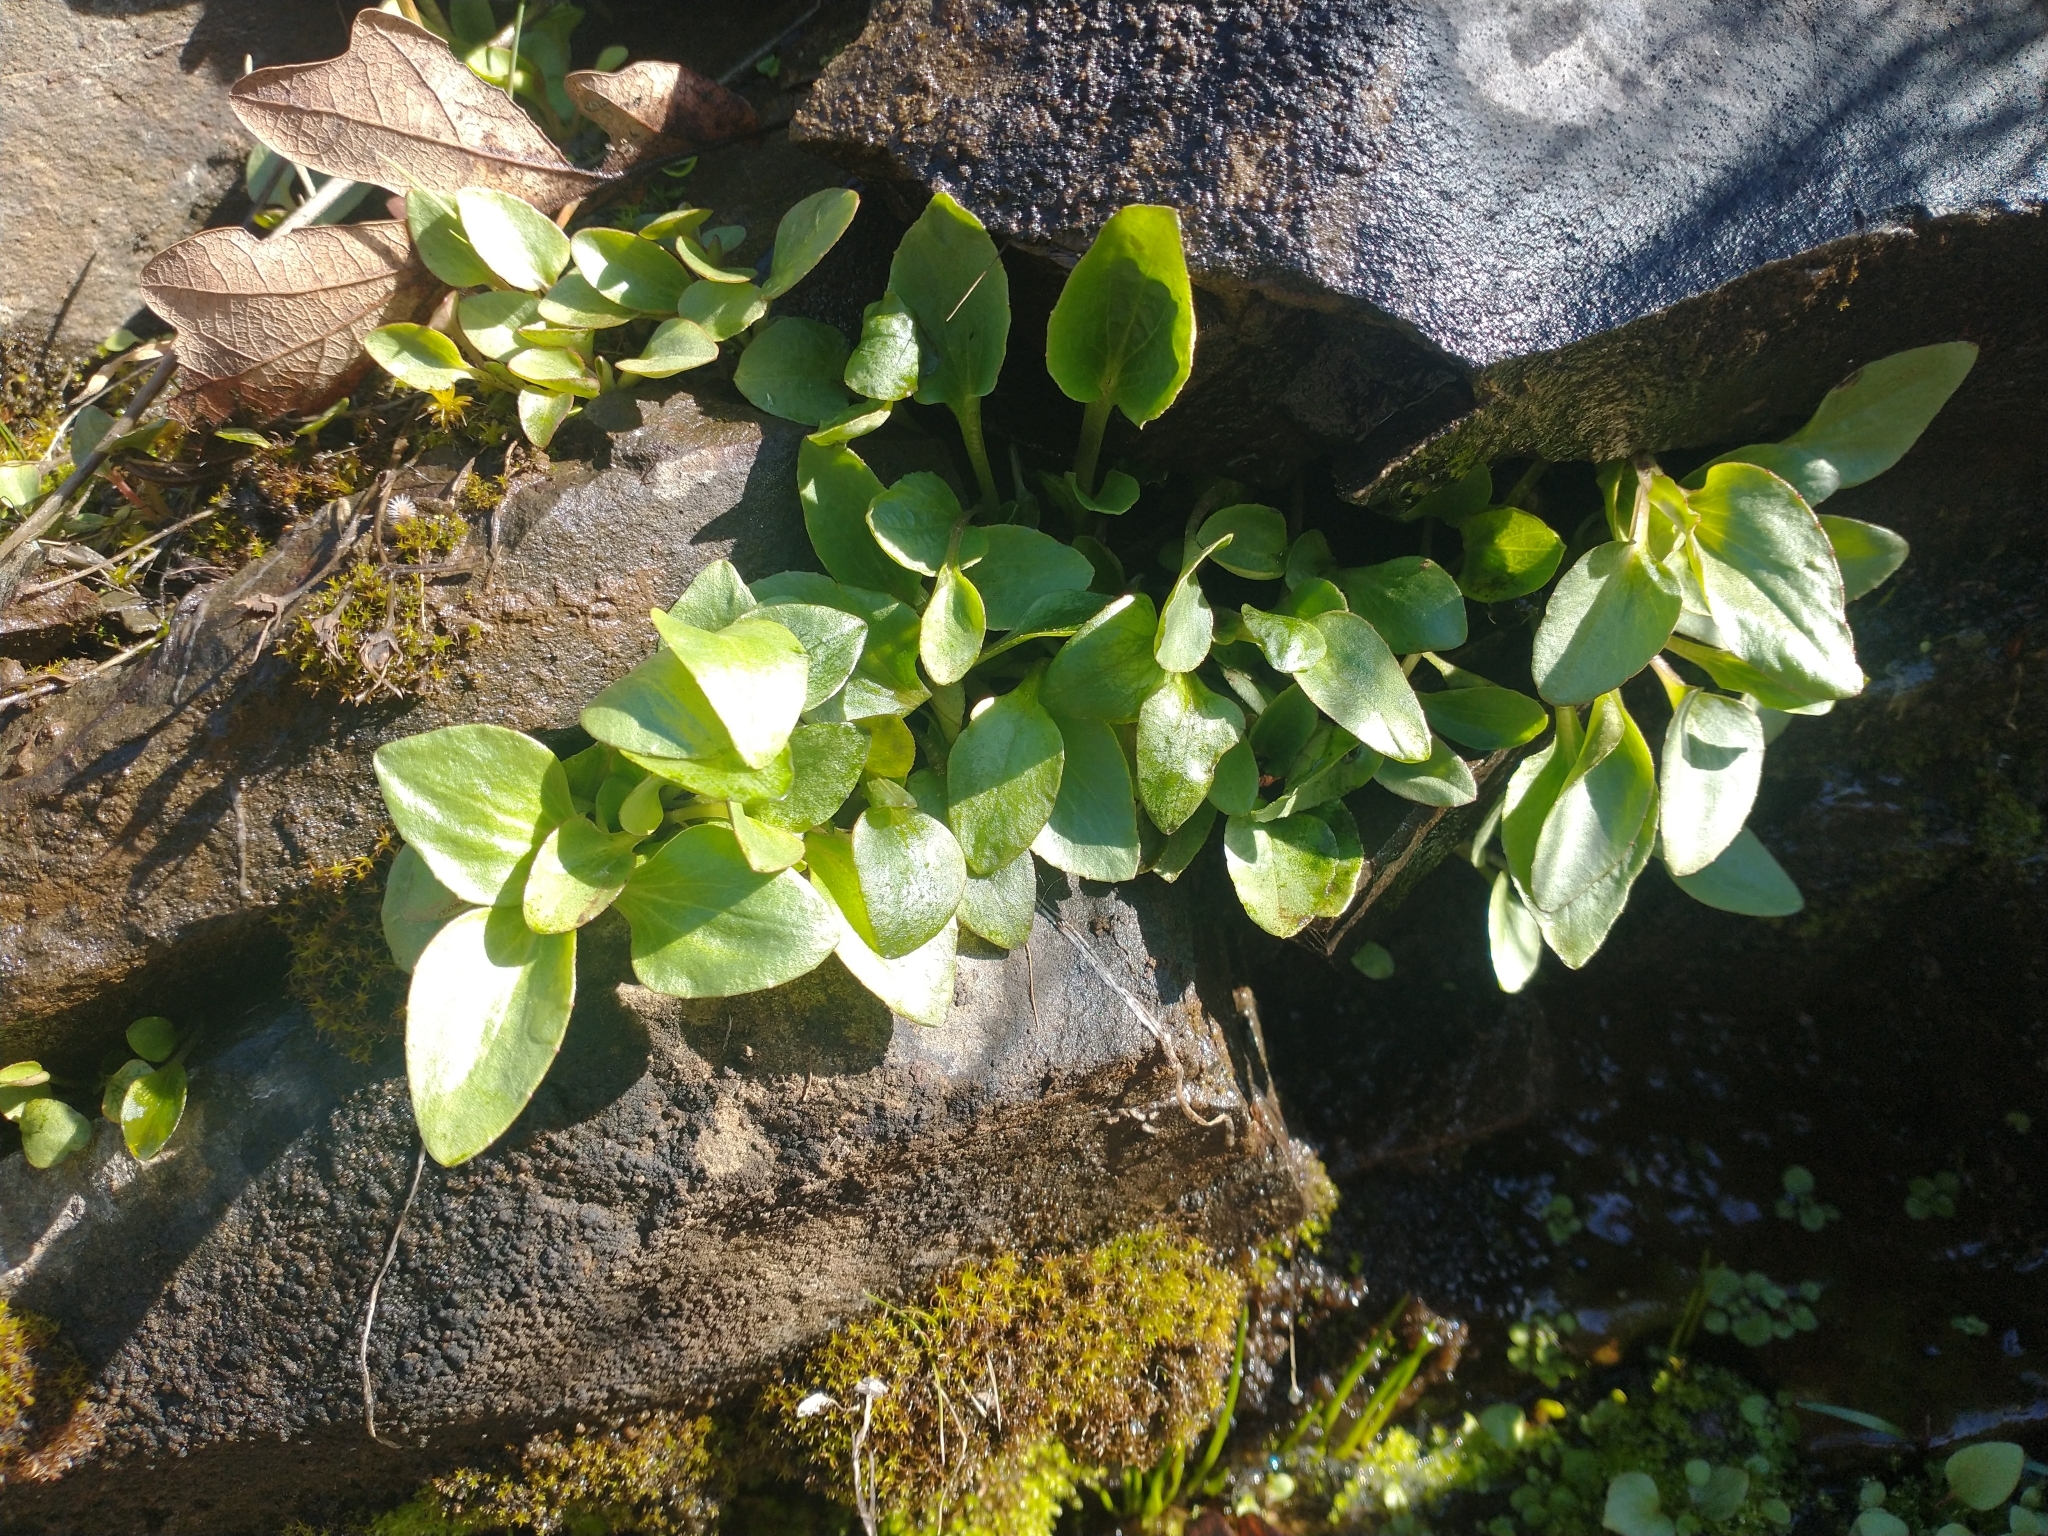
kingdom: Plantae
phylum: Tracheophyta
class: Magnoliopsida
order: Saxifragales
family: Saxifragaceae
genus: Micranthes
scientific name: Micranthes fragosa
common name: Peak saxifrage
